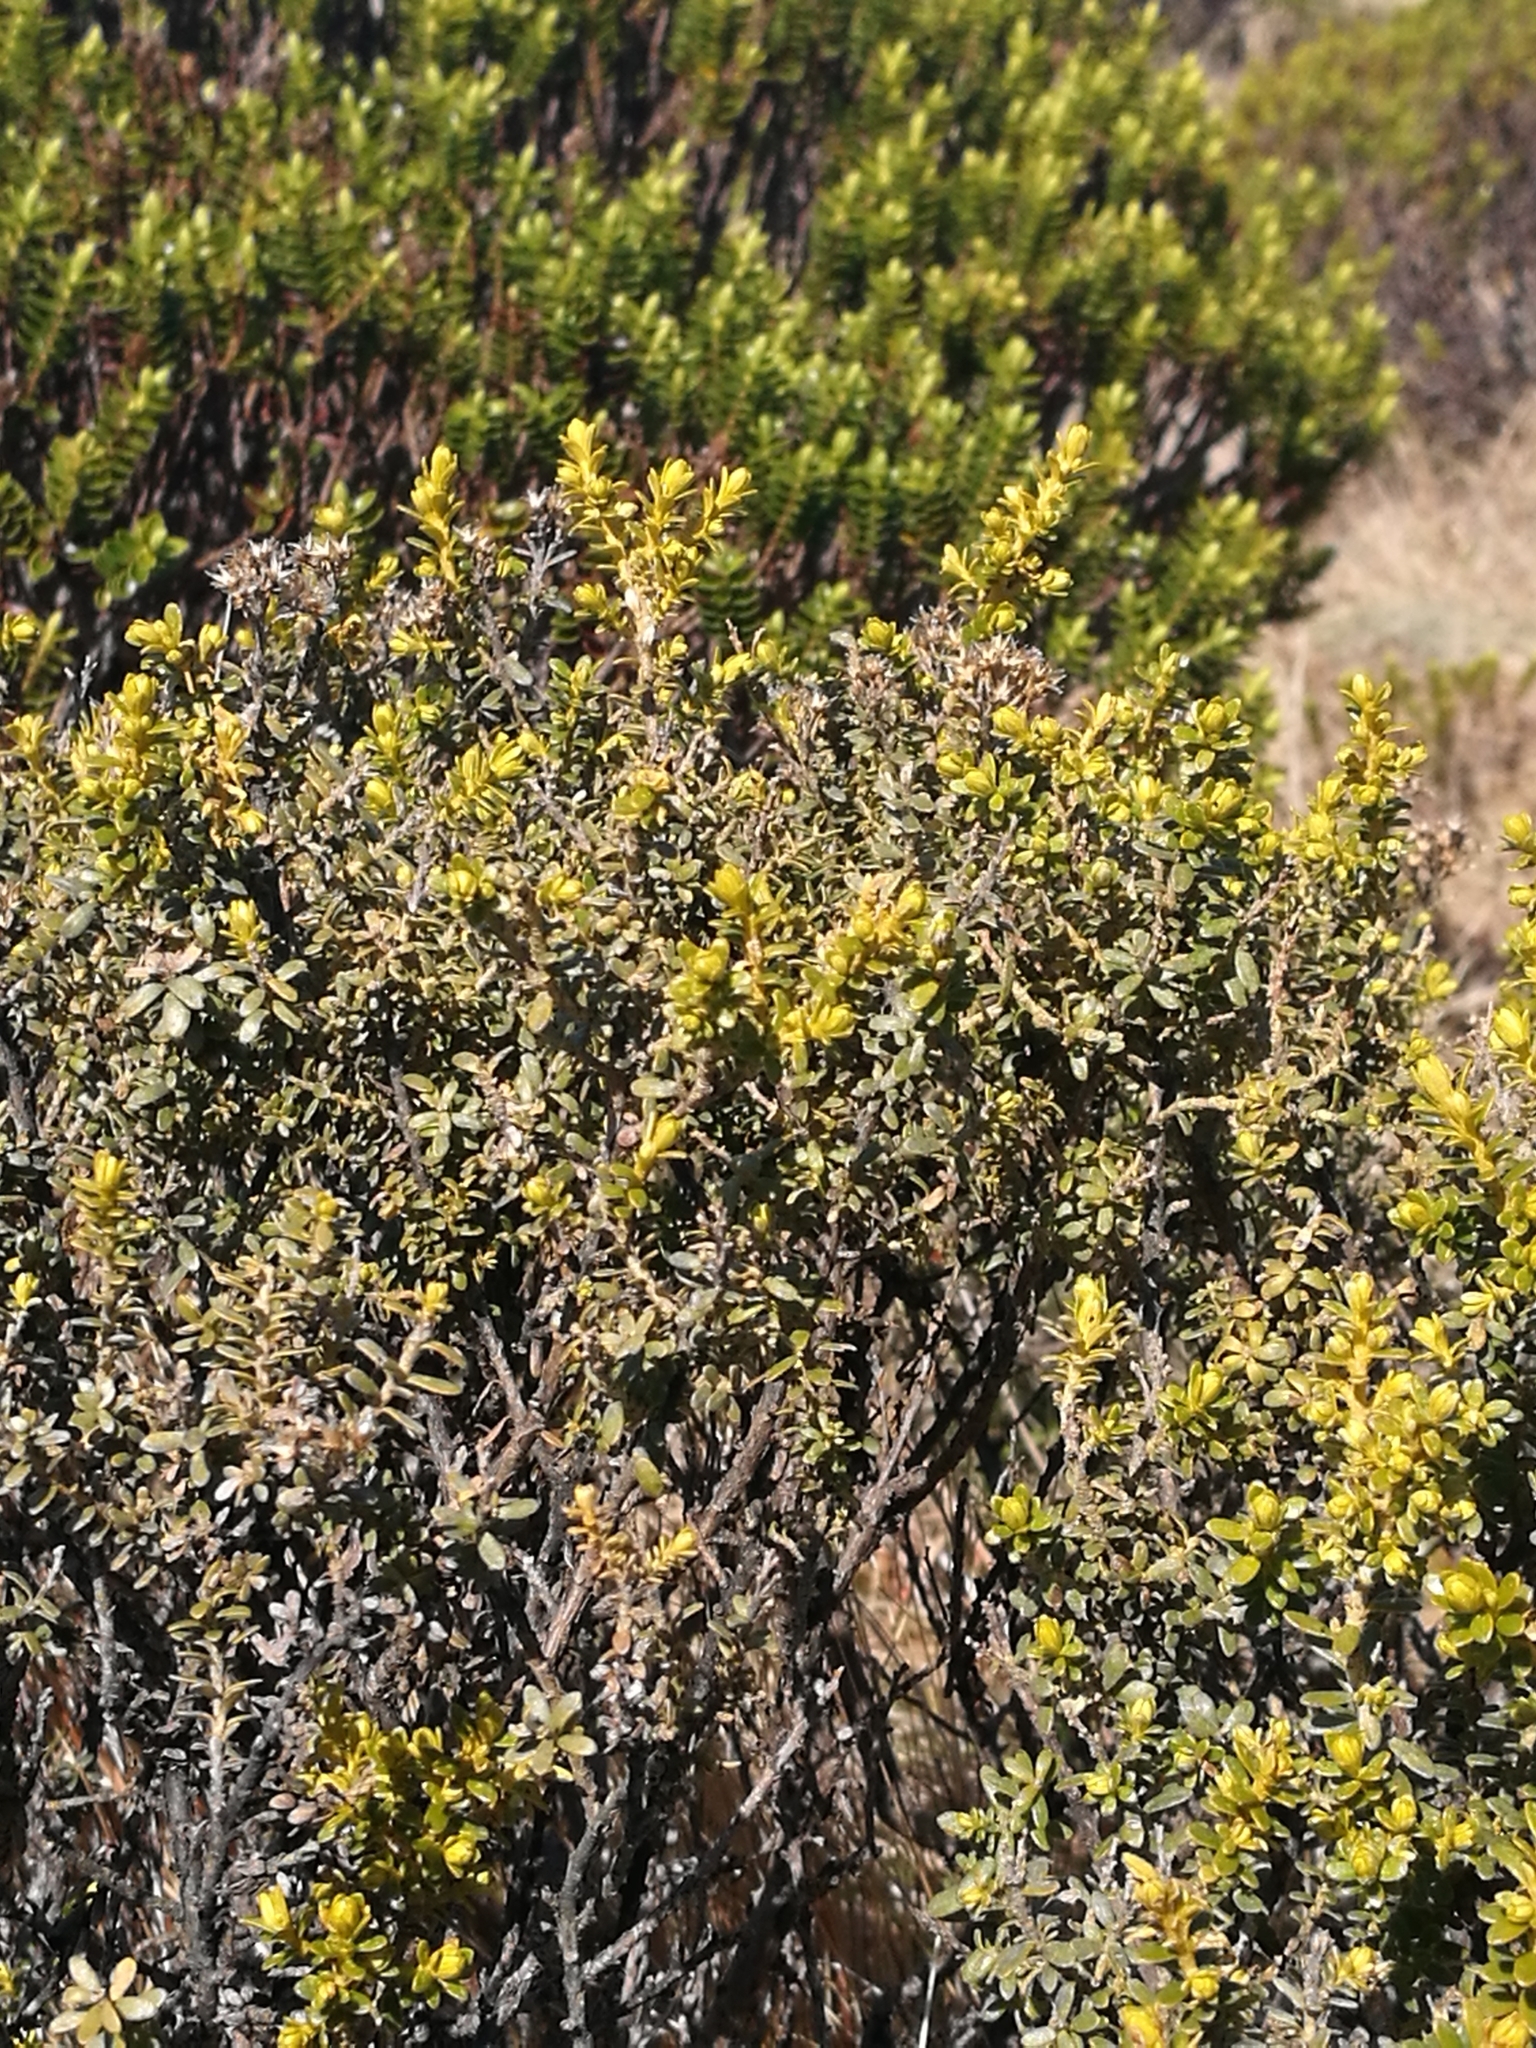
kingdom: Plantae
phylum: Tracheophyta
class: Magnoliopsida
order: Asterales
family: Asteraceae
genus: Ozothamnus
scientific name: Ozothamnus leptophyllus
